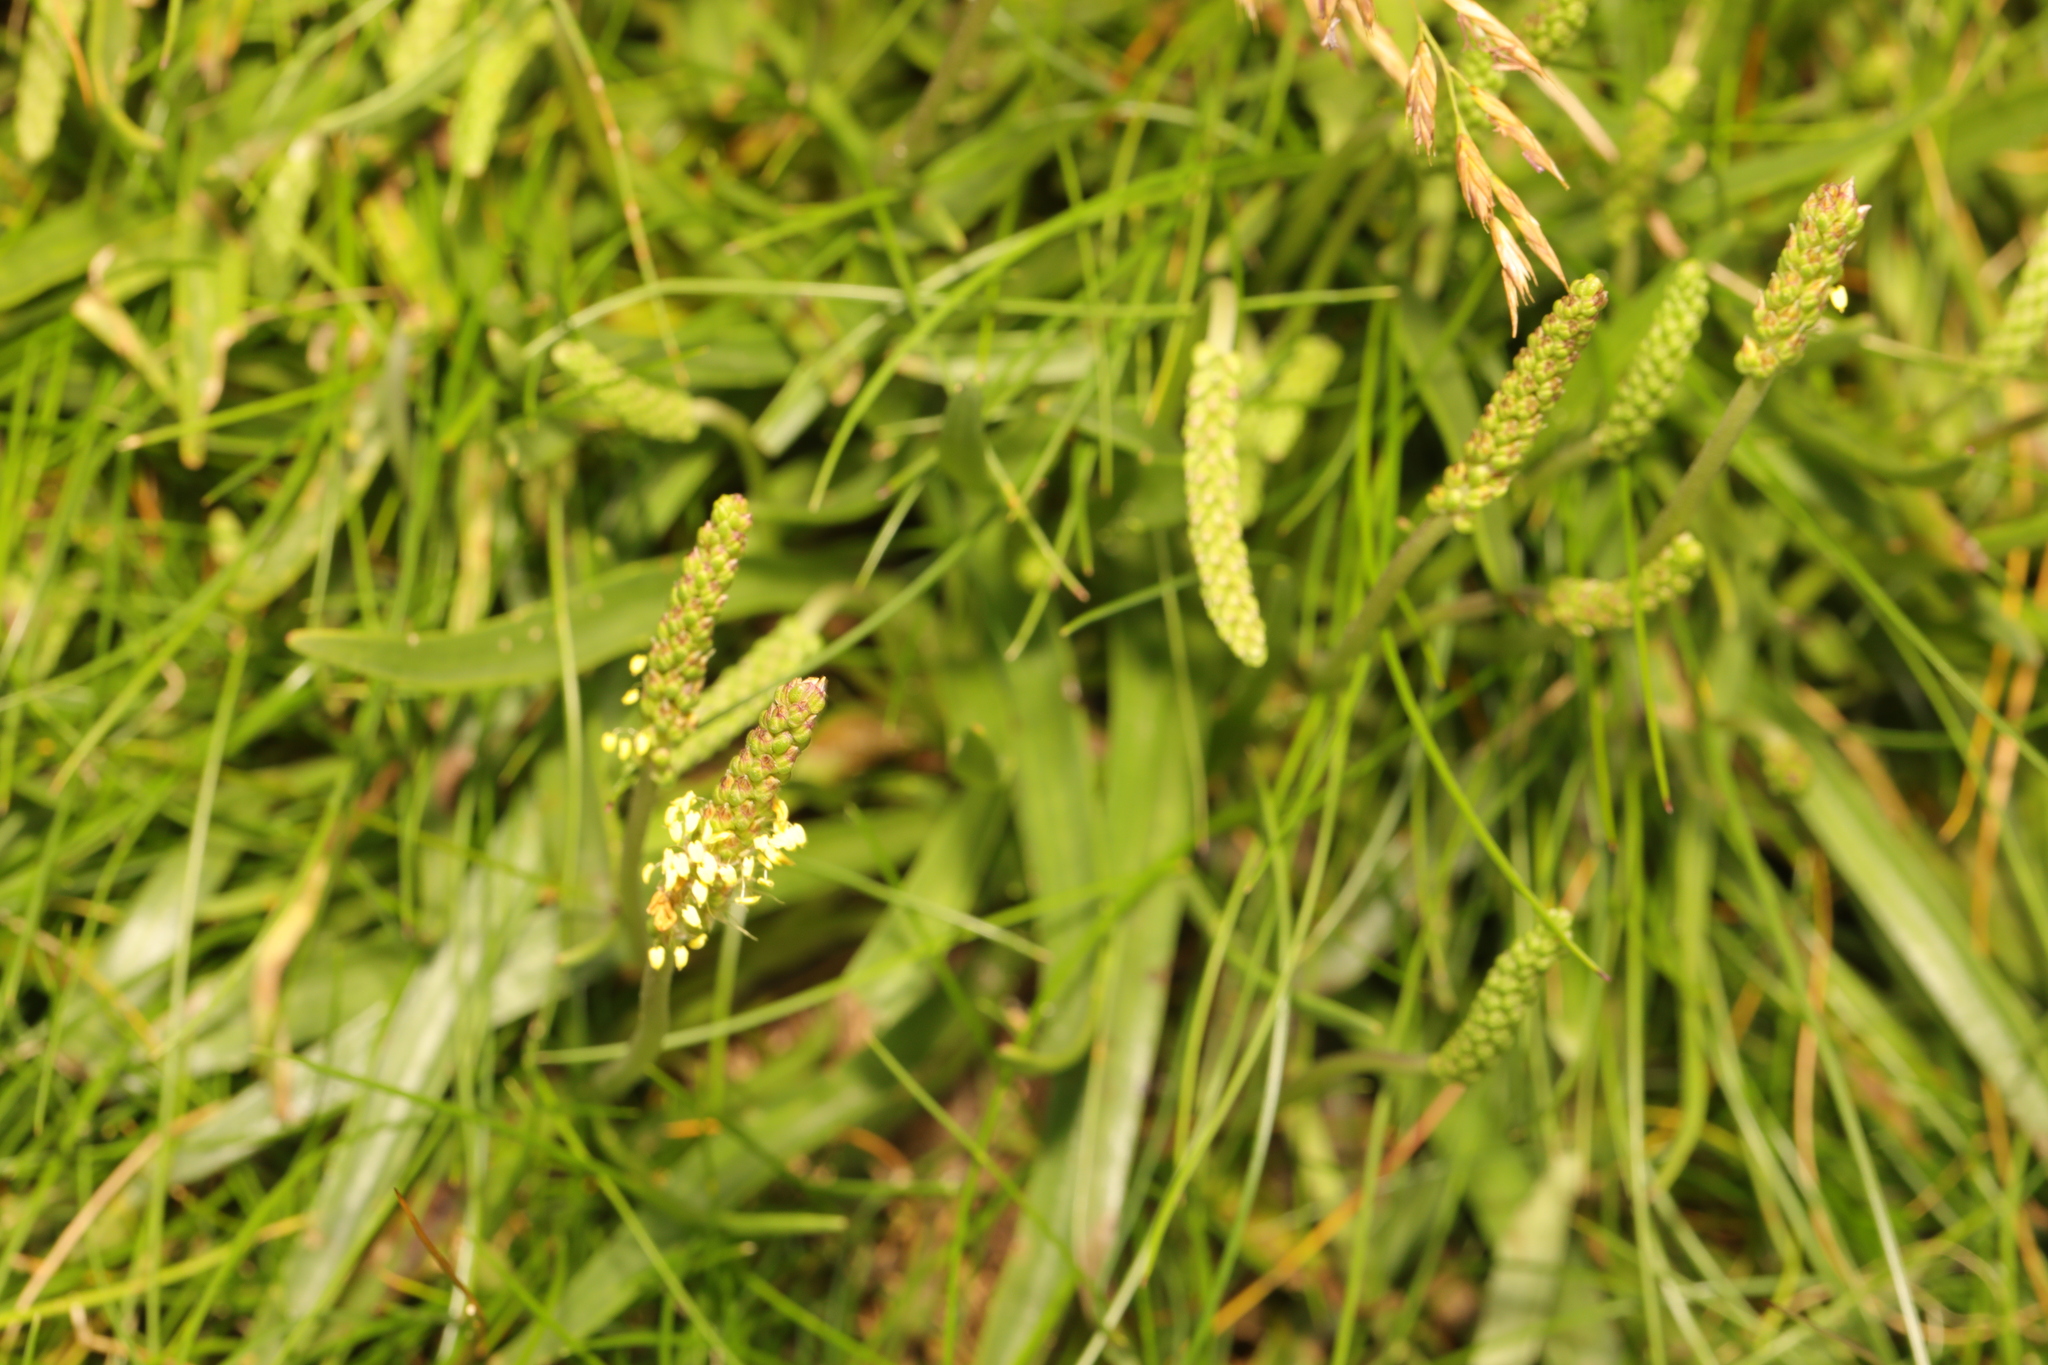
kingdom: Plantae
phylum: Tracheophyta
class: Magnoliopsida
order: Lamiales
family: Plantaginaceae
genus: Plantago
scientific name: Plantago maritima
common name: Sea plantain
